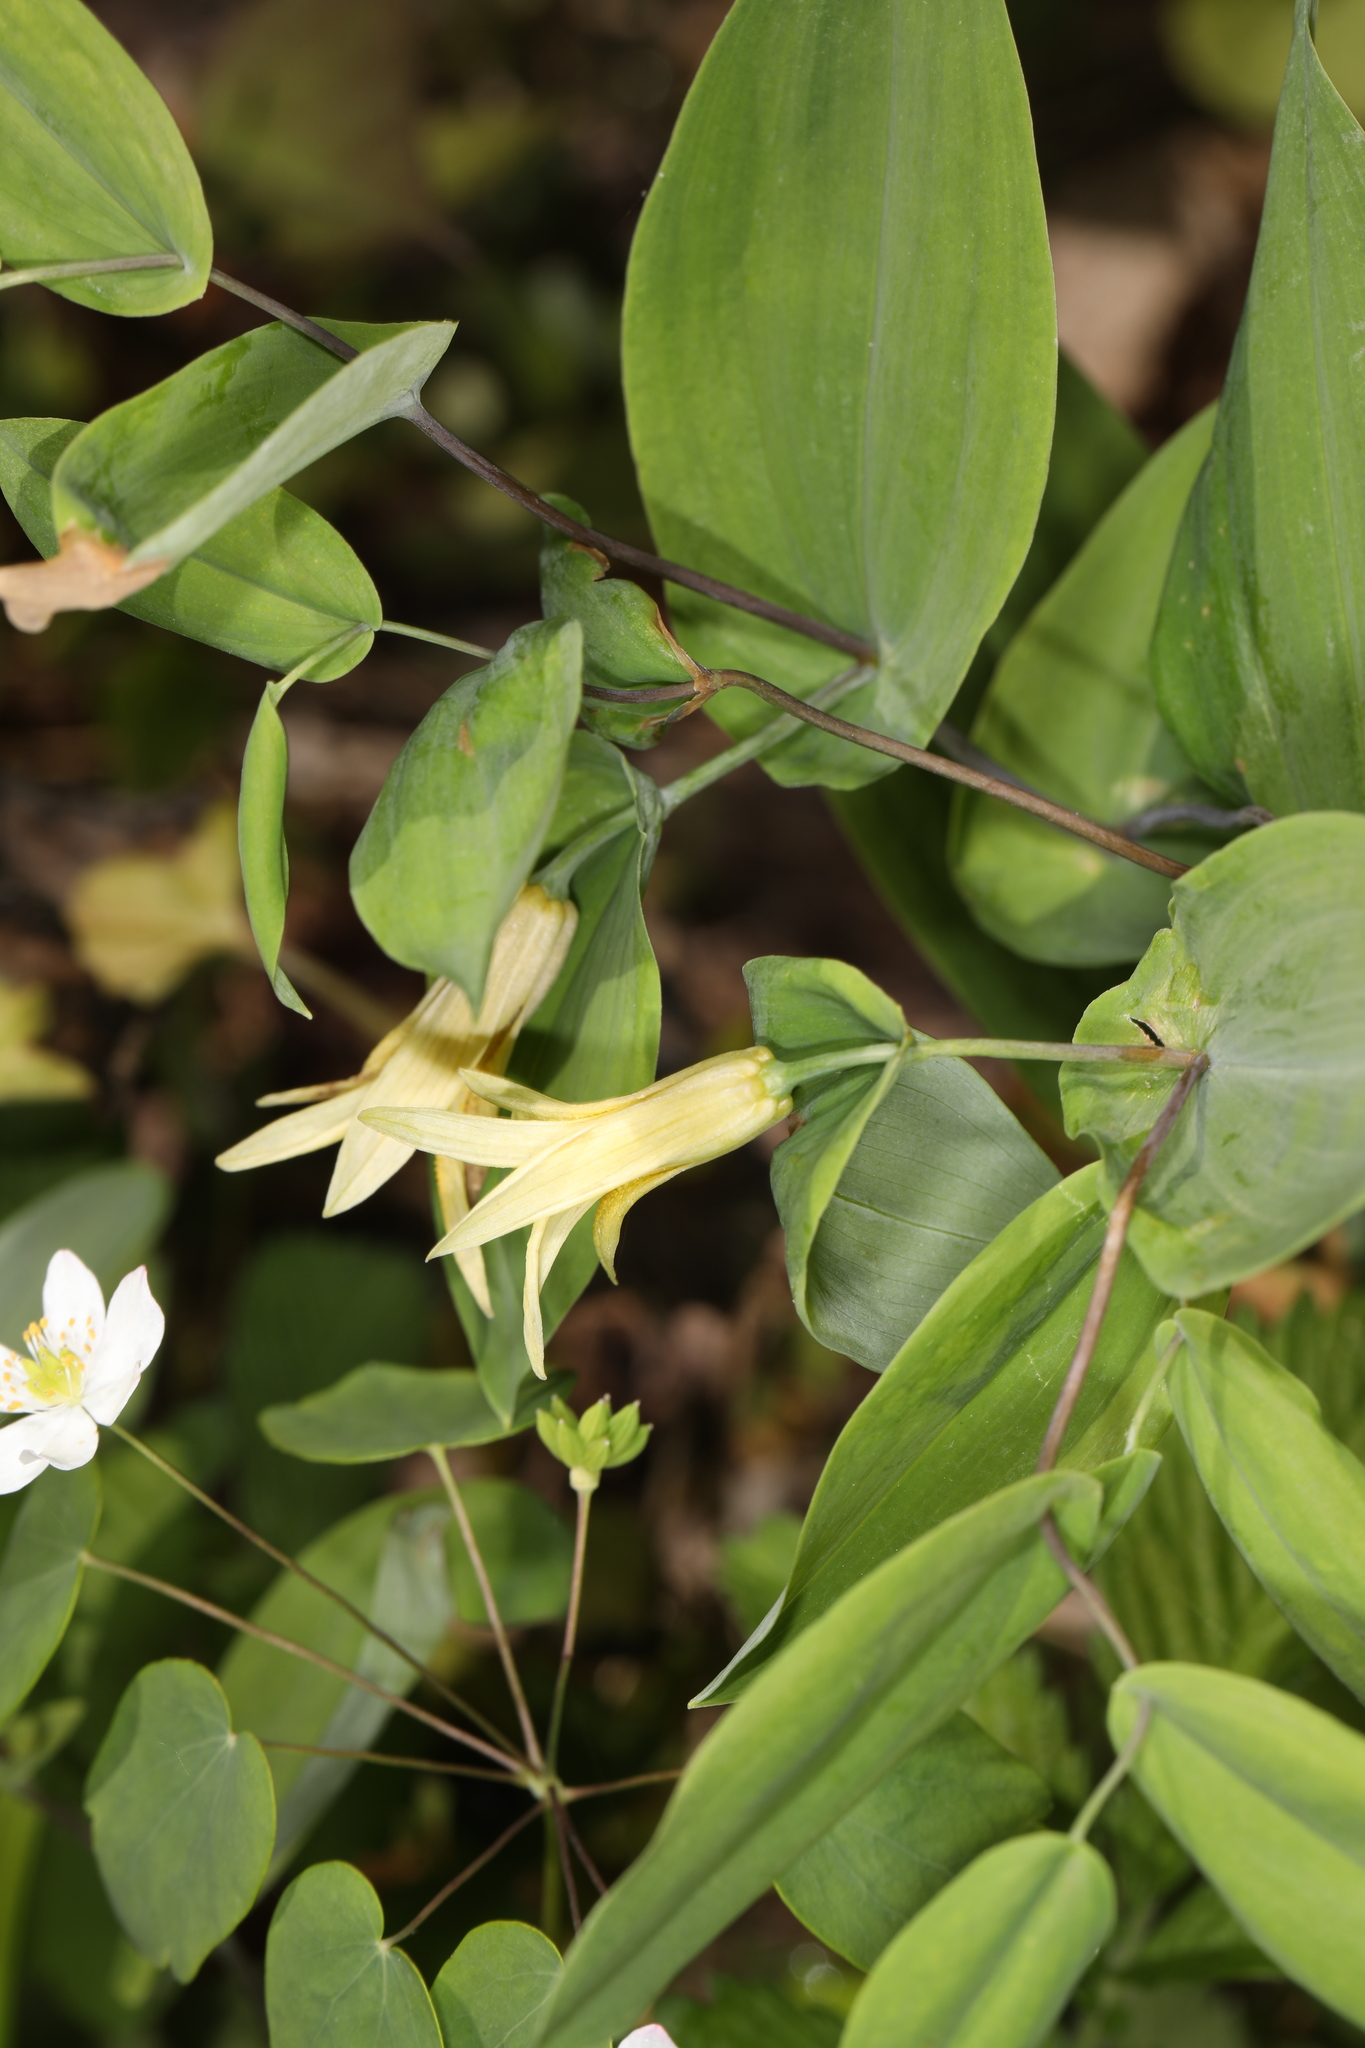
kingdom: Plantae
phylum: Tracheophyta
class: Liliopsida
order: Liliales
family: Colchicaceae
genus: Uvularia
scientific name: Uvularia perfoliata
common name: Perfoliate bellwort
